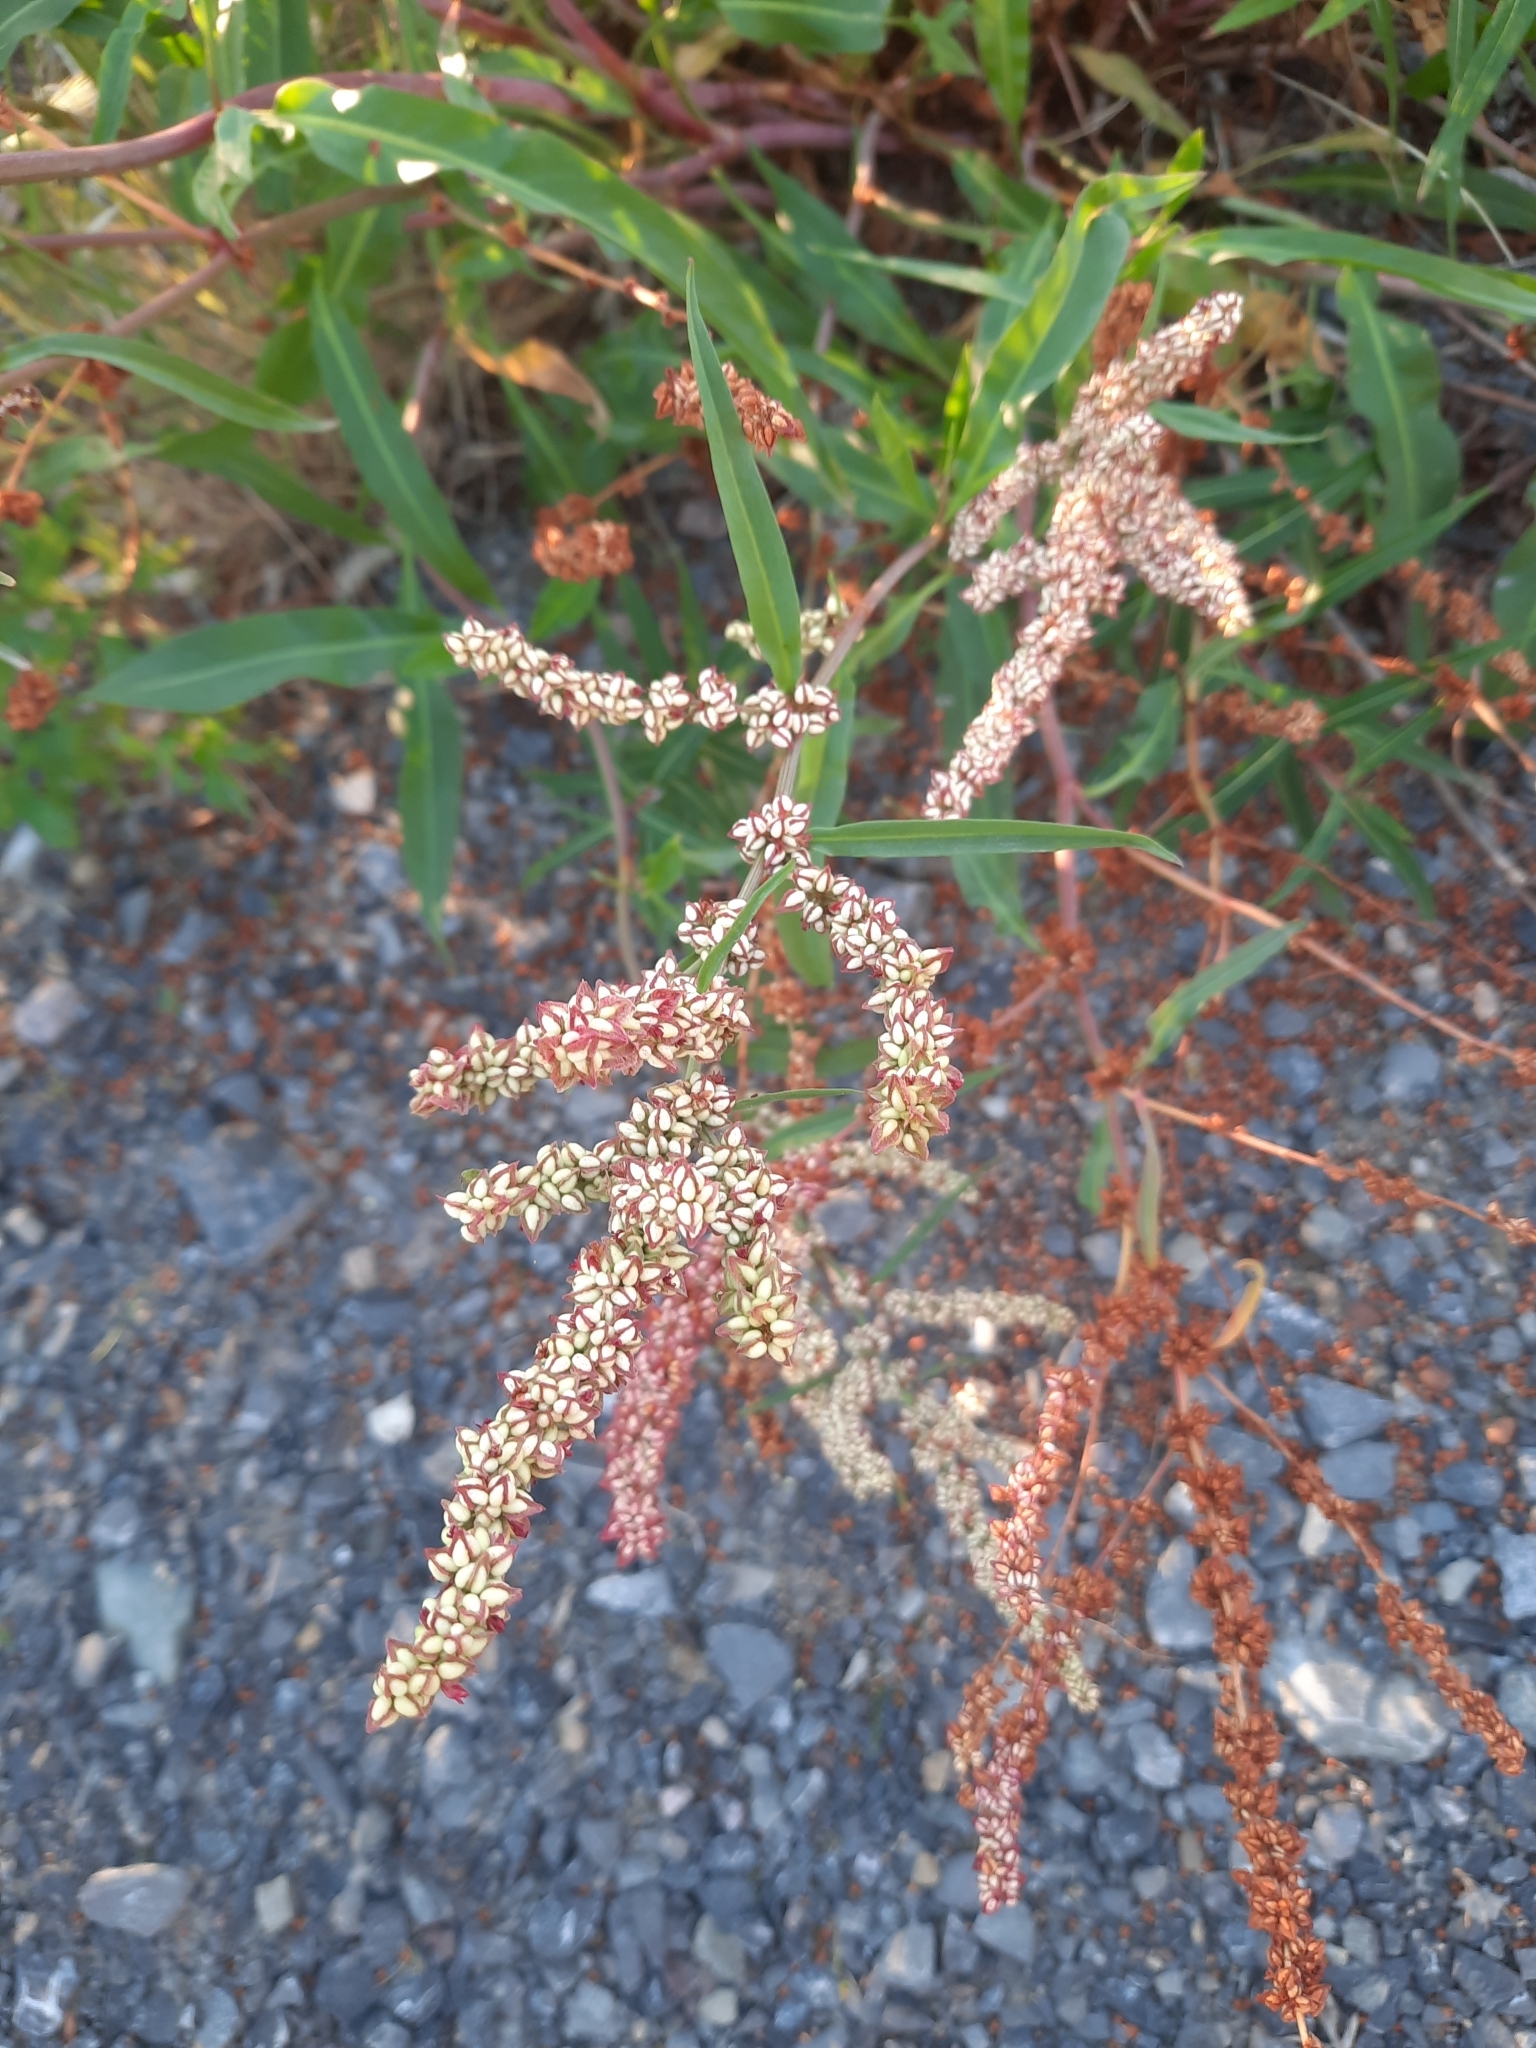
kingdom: Plantae
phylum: Tracheophyta
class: Magnoliopsida
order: Caryophyllales
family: Polygonaceae
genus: Rumex
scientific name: Rumex triangulivalvis
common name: Triangular-valve dock
